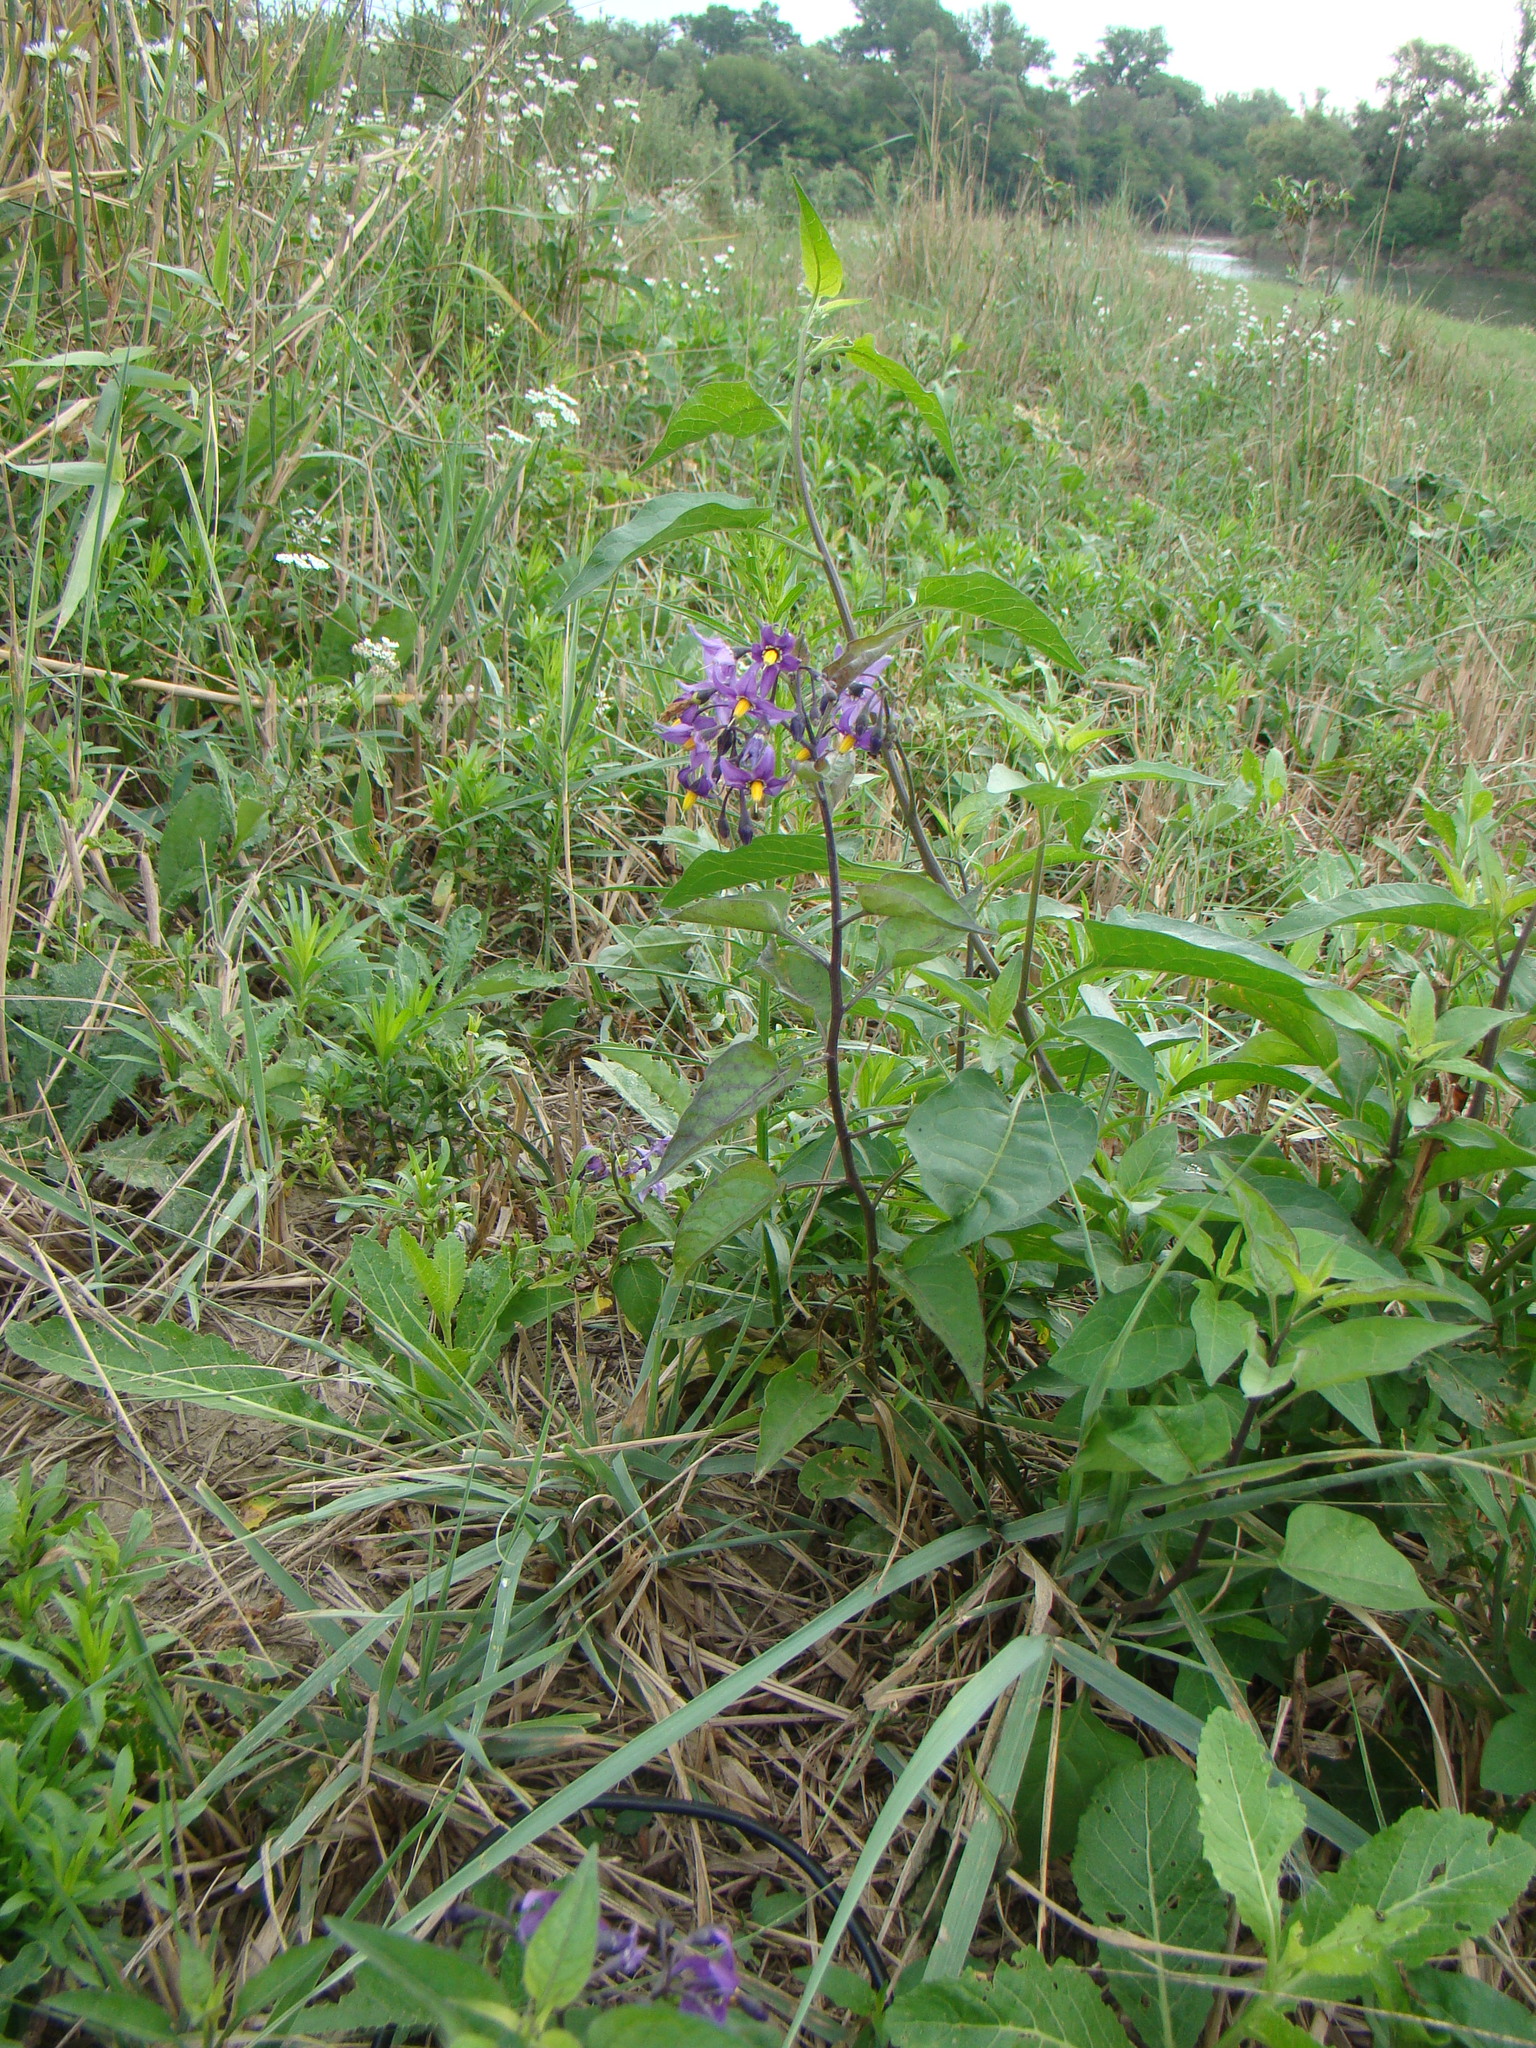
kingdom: Plantae
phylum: Tracheophyta
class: Magnoliopsida
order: Solanales
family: Solanaceae
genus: Solanum
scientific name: Solanum dulcamara
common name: Climbing nightshade
